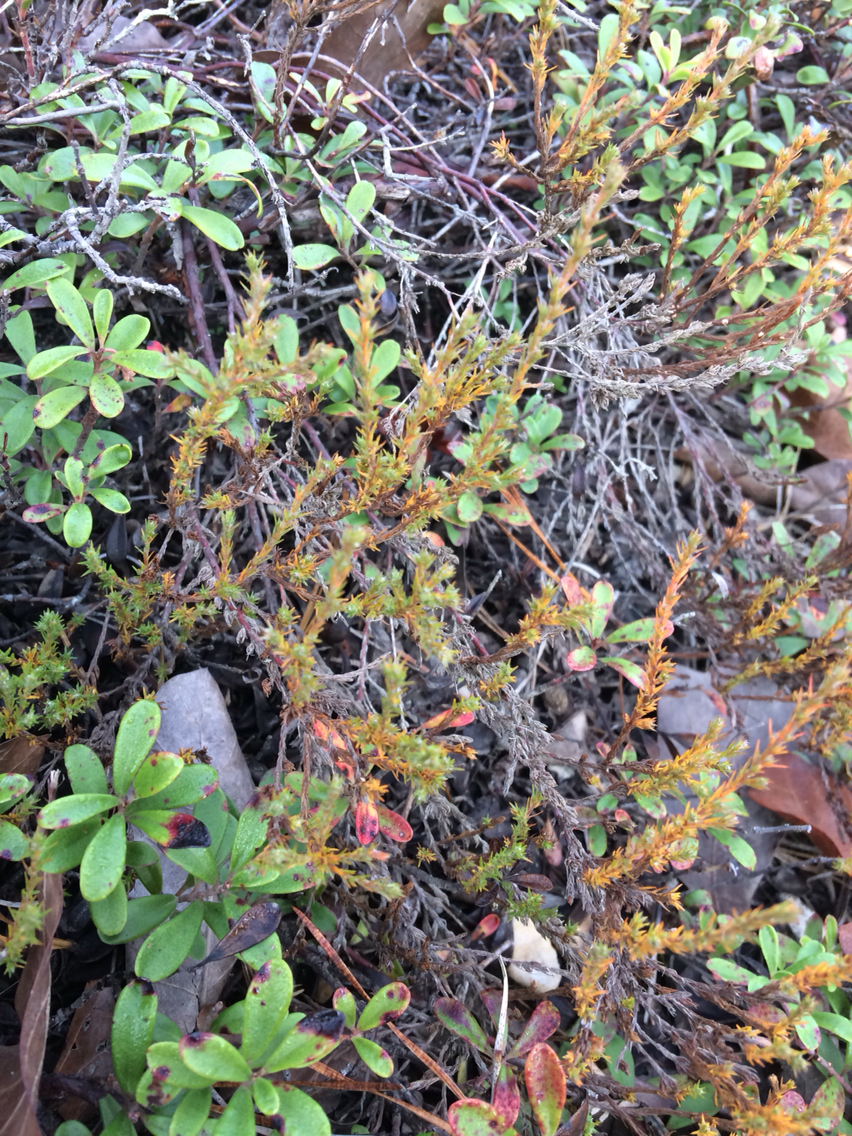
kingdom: Plantae
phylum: Tracheophyta
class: Magnoliopsida
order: Malvales
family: Cistaceae
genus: Hudsonia
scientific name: Hudsonia ericoides
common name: Golden-heather
